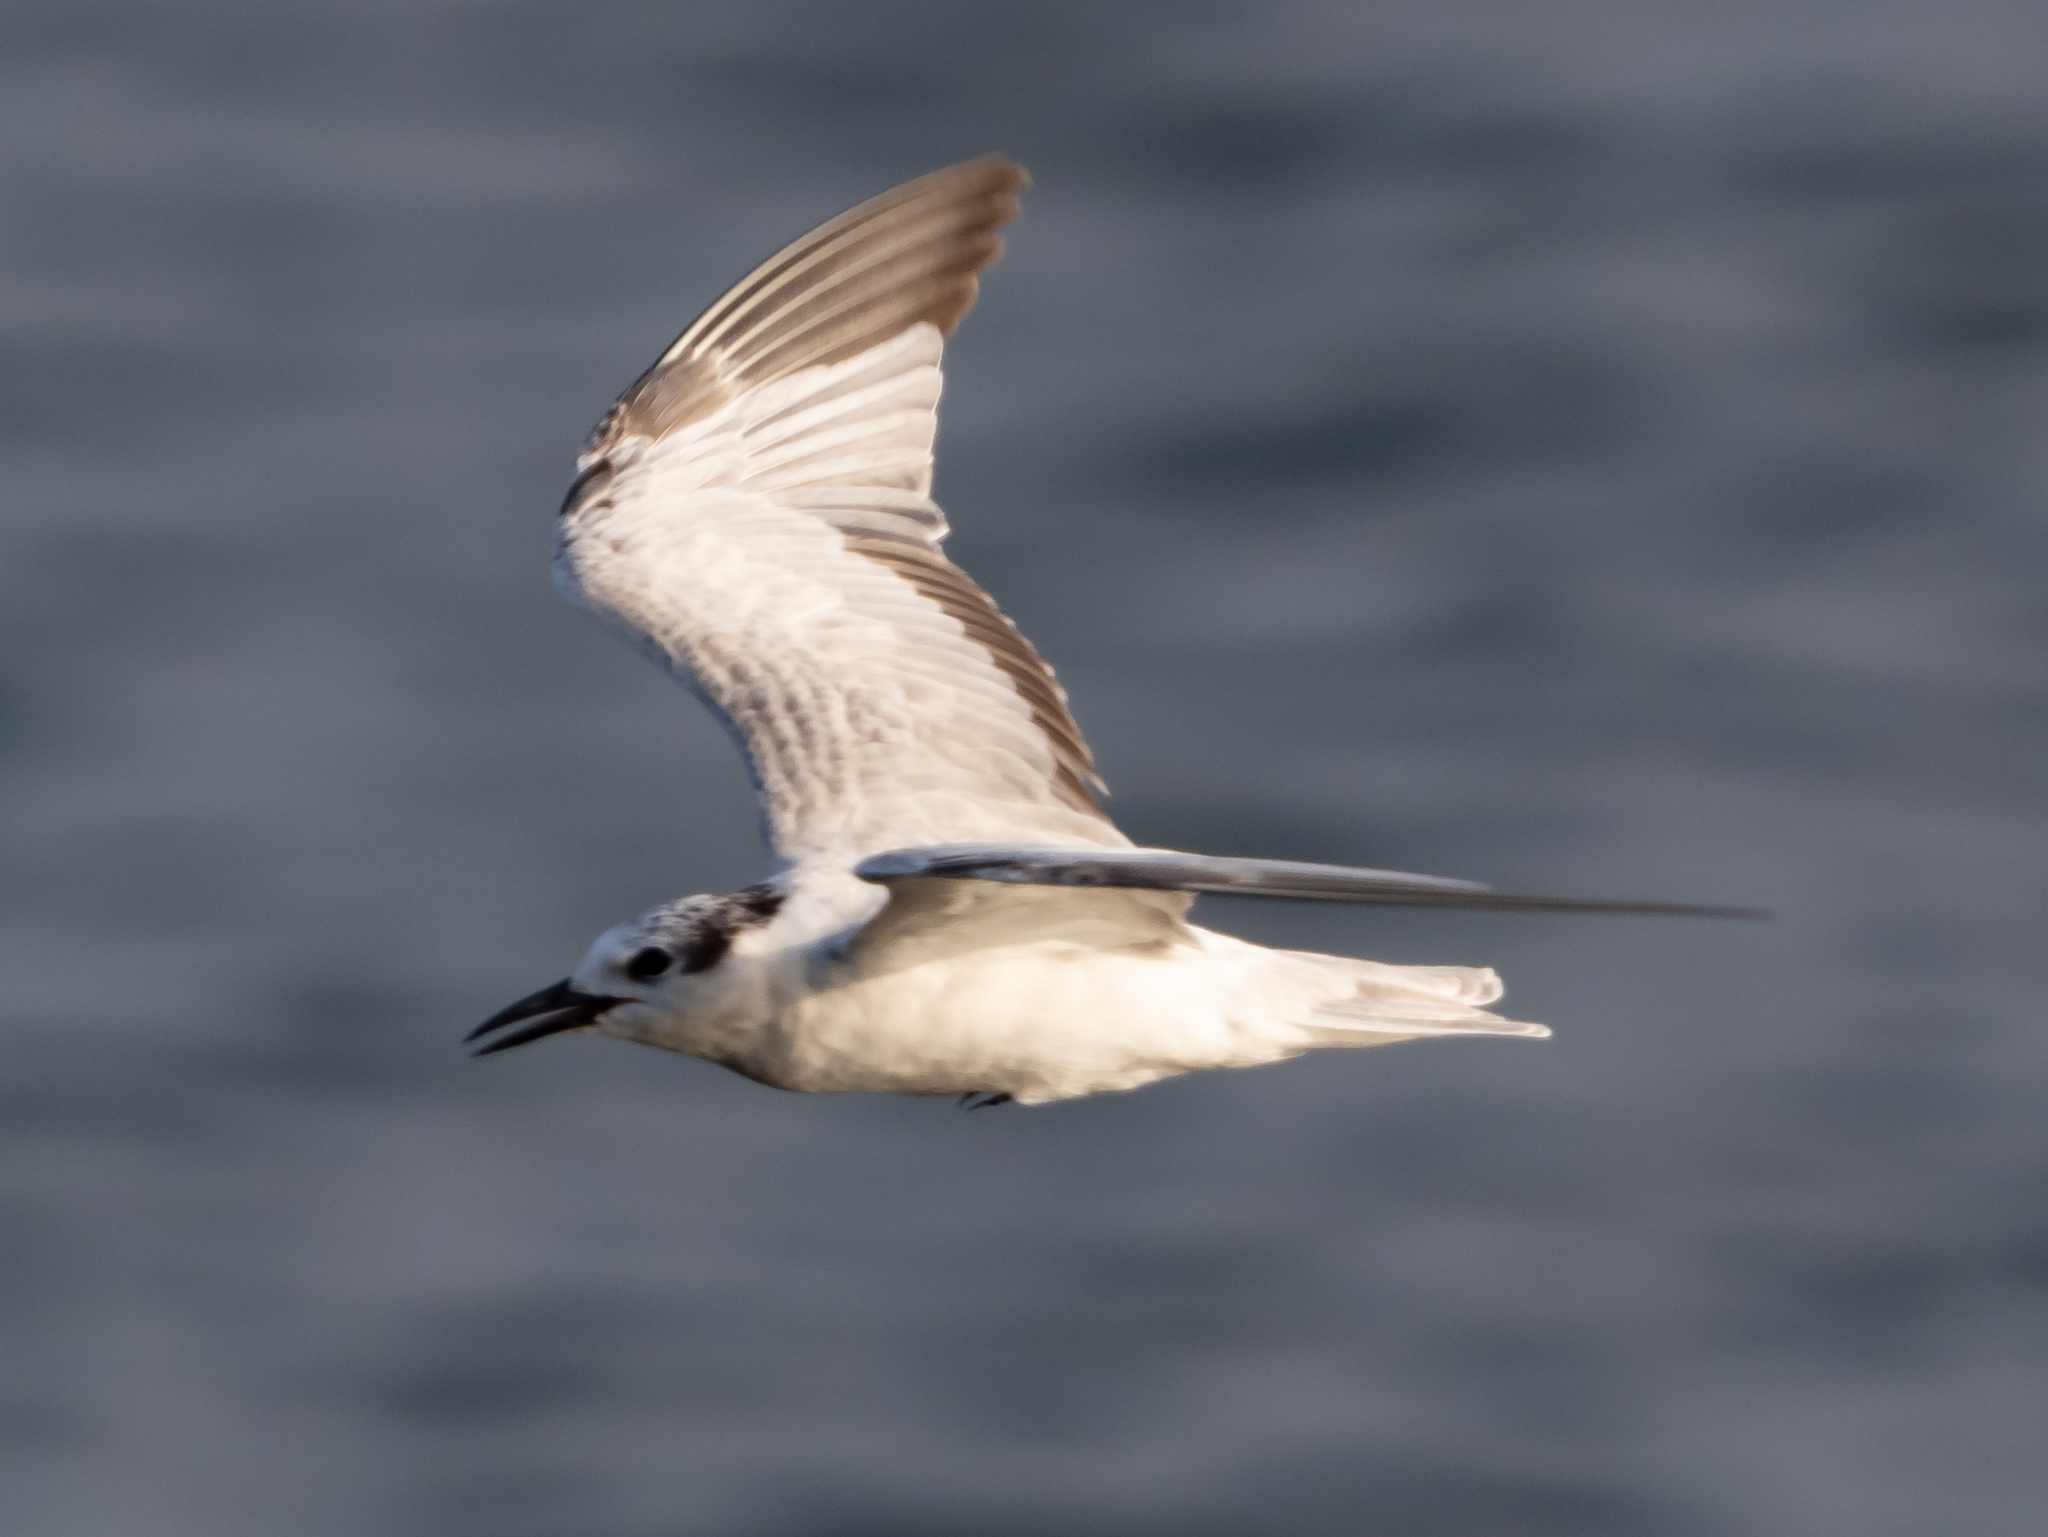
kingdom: Animalia
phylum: Chordata
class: Aves
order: Charadriiformes
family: Laridae
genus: Chlidonias
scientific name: Chlidonias hybrida
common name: Whiskered tern
